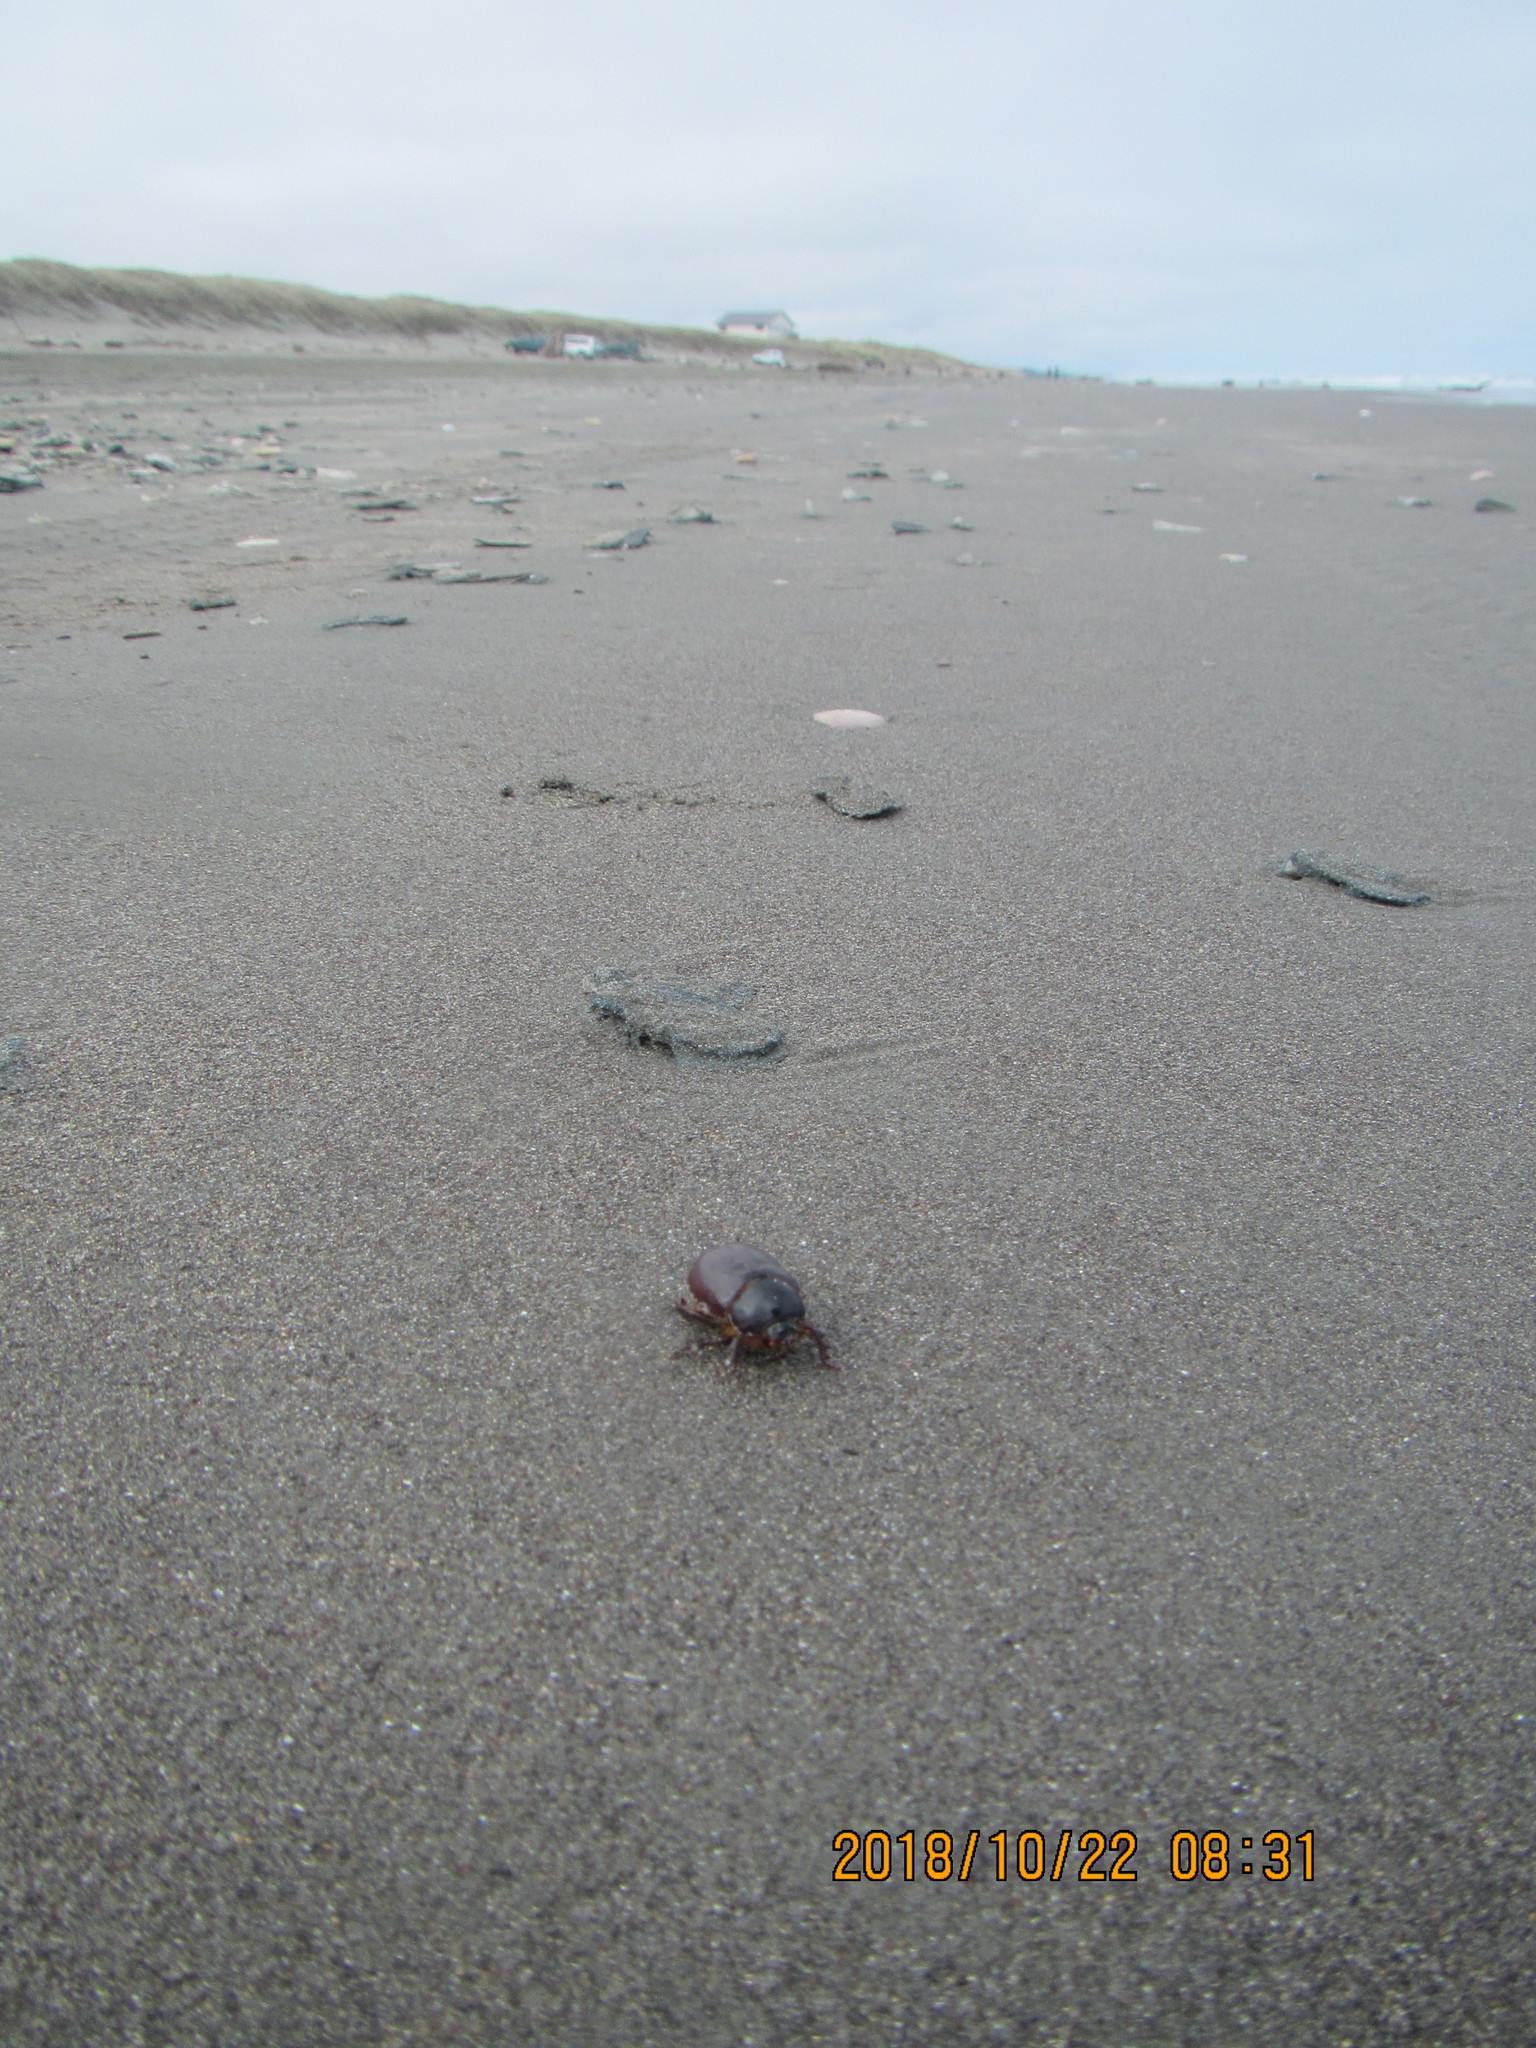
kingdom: Animalia
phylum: Arthropoda
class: Insecta
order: Coleoptera
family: Scarabaeidae
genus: Pericoptus
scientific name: Pericoptus truncatus
